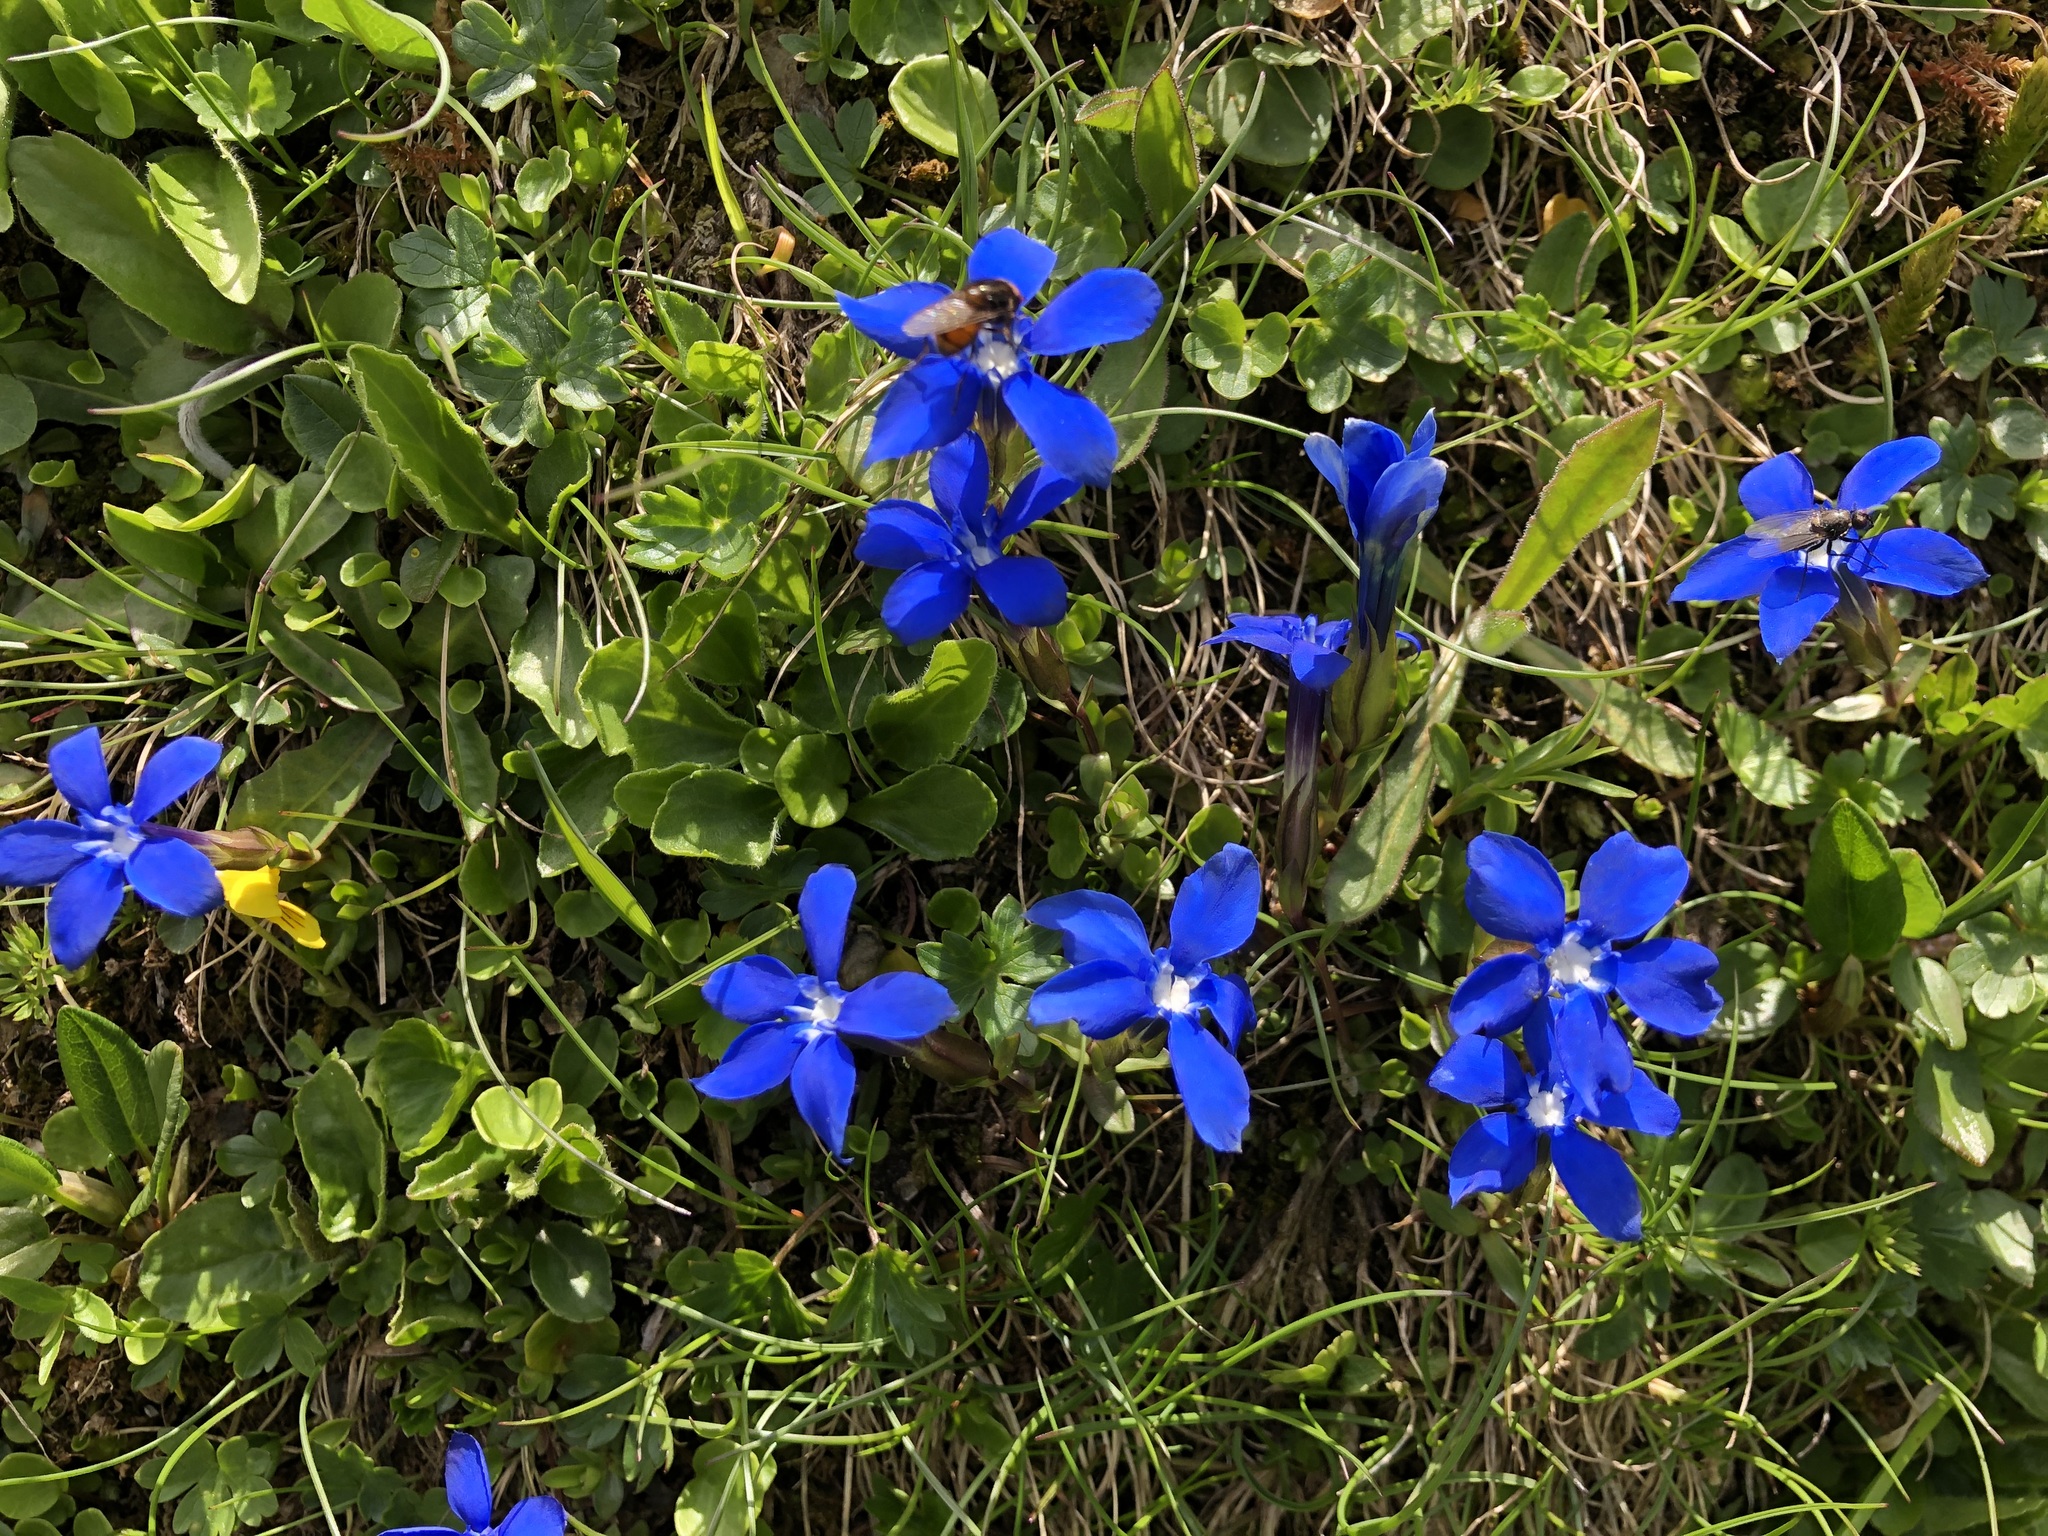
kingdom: Plantae
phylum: Tracheophyta
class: Magnoliopsida
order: Gentianales
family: Gentianaceae
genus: Gentiana
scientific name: Gentiana verna
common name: Spring gentian
